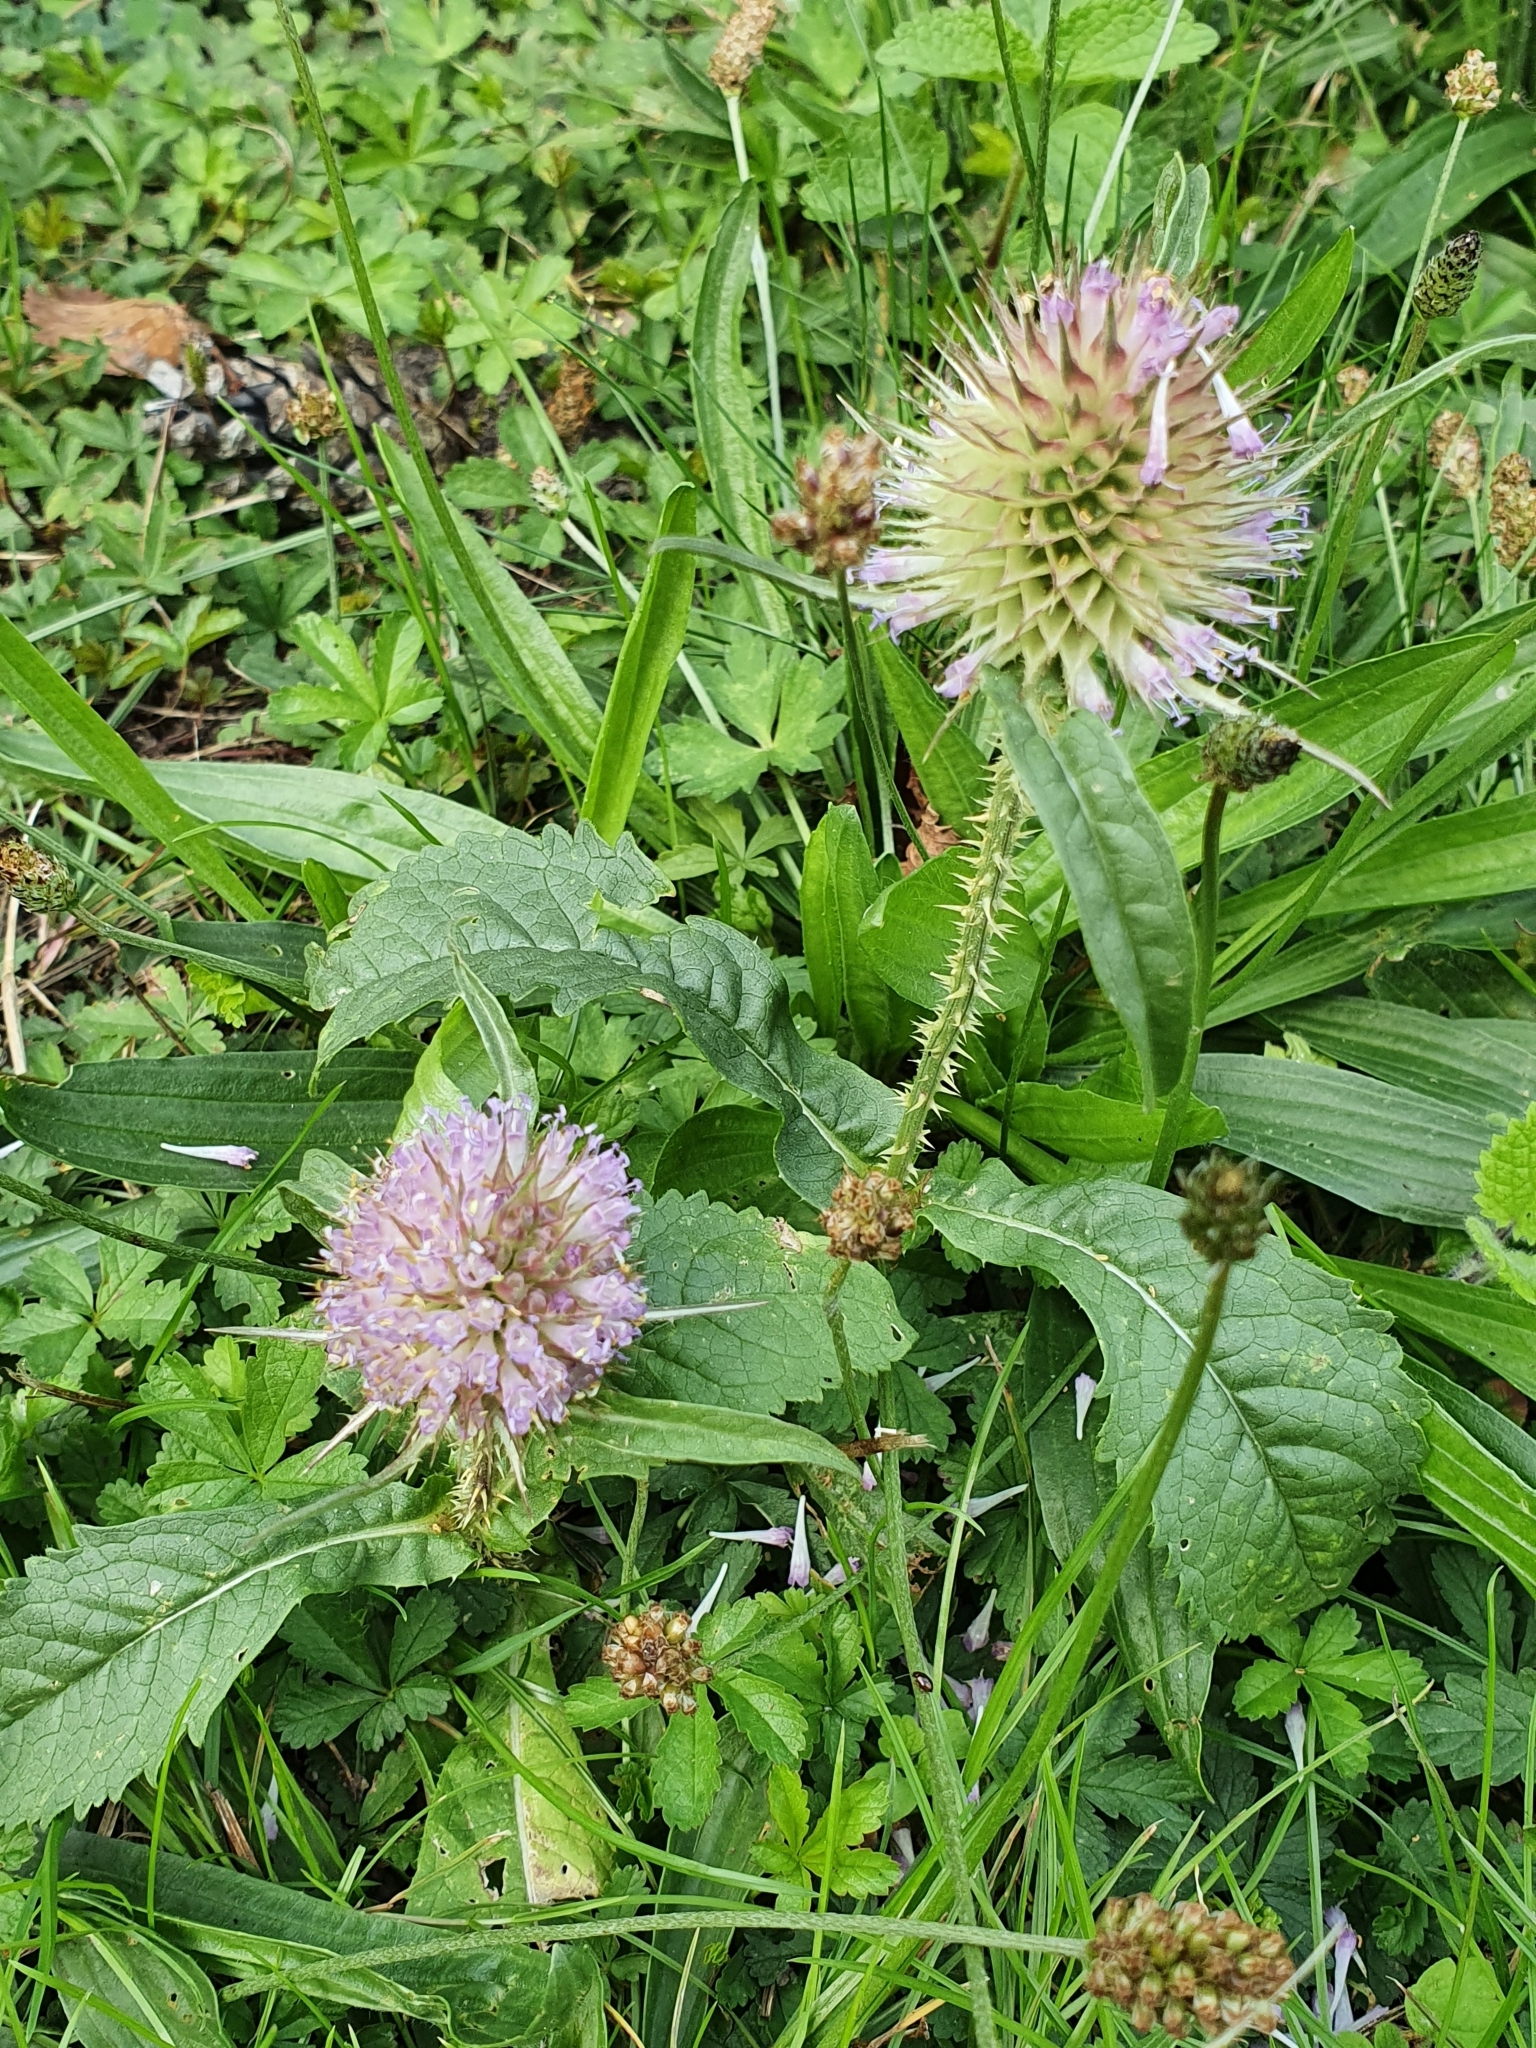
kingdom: Plantae
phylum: Tracheophyta
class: Magnoliopsida
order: Dipsacales
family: Caprifoliaceae
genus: Dipsacus
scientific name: Dipsacus fullonum
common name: Teasel
